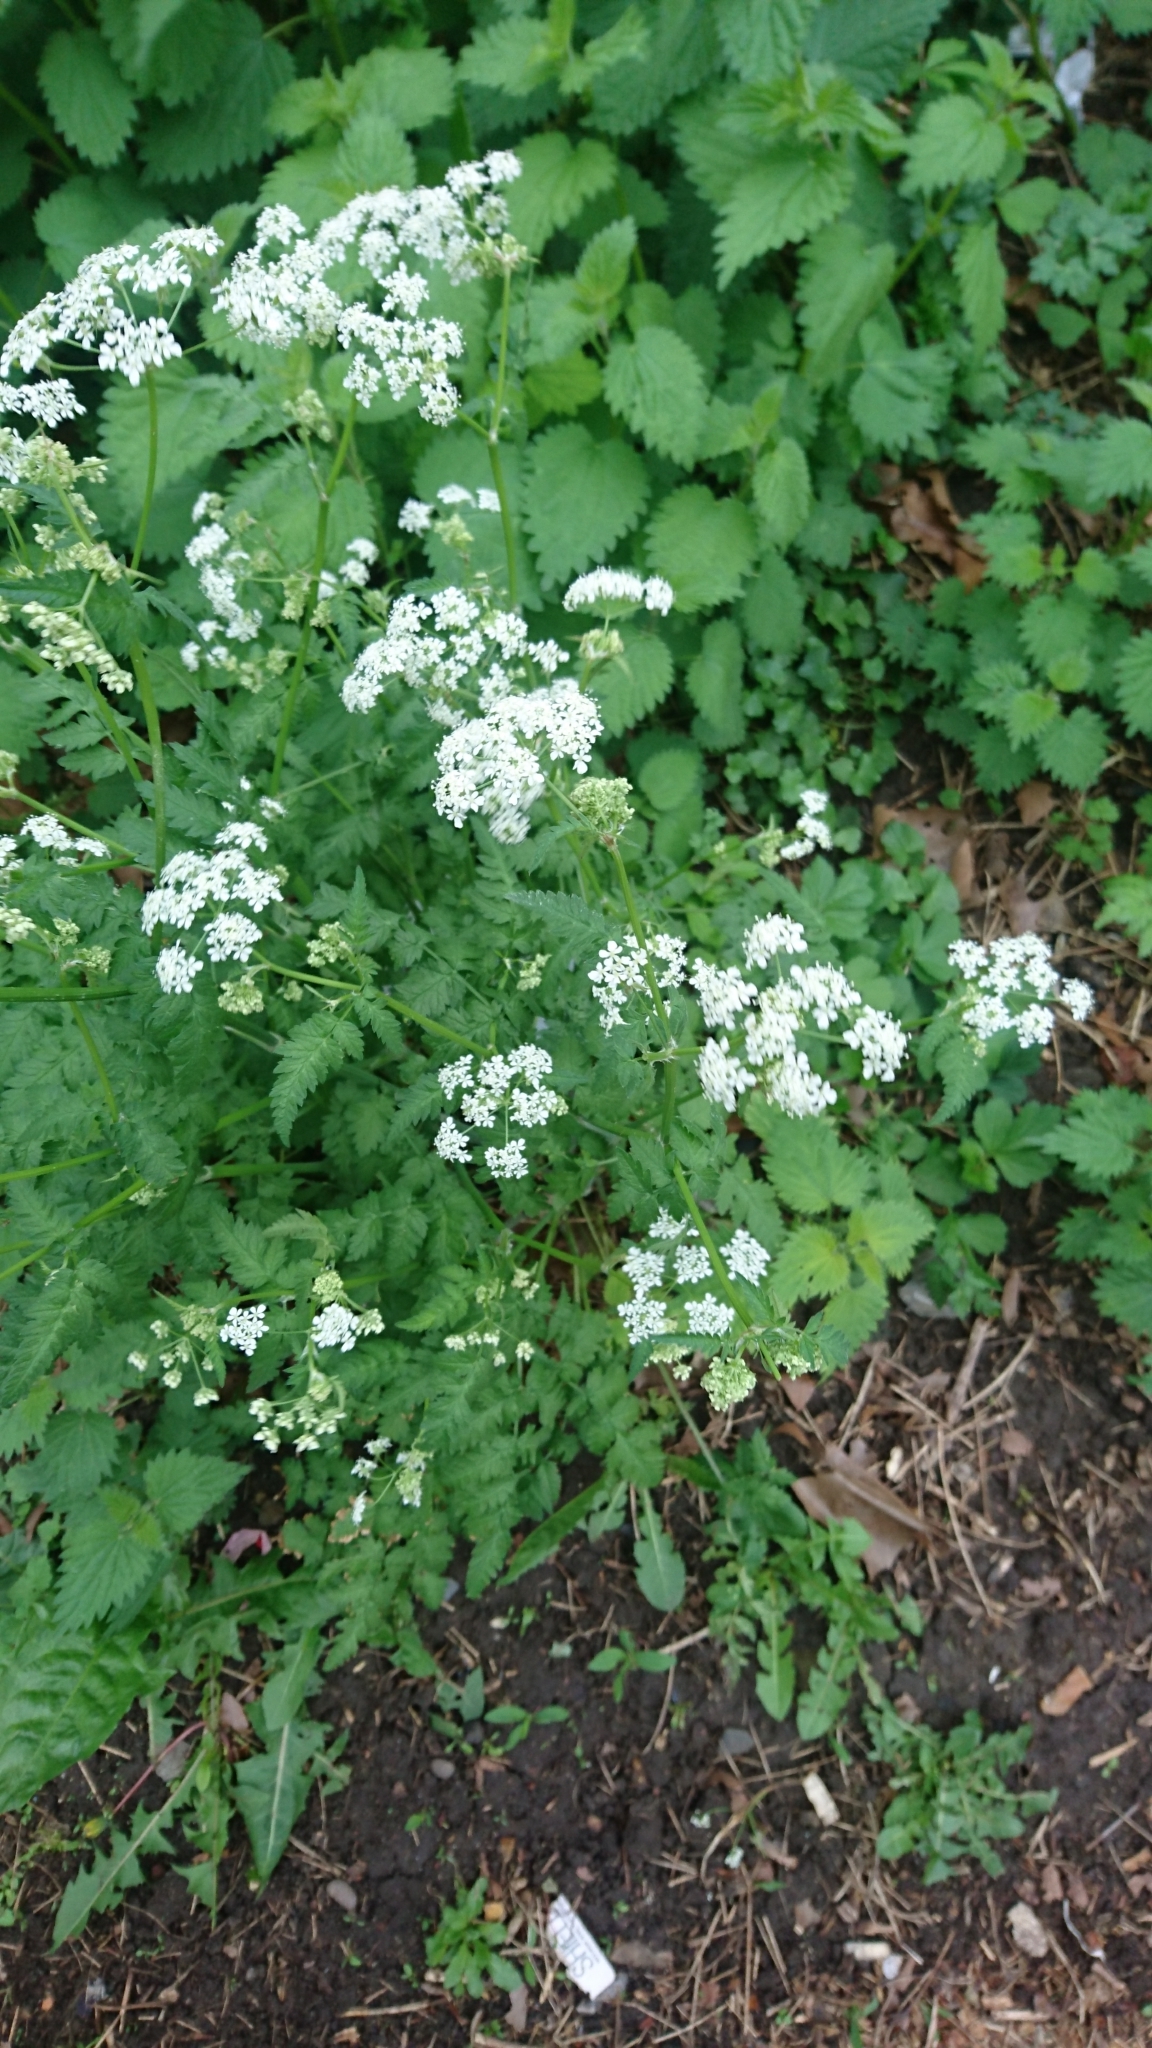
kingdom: Plantae
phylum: Tracheophyta
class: Magnoliopsida
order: Apiales
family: Apiaceae
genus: Anthriscus
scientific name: Anthriscus sylvestris
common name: Cow parsley
